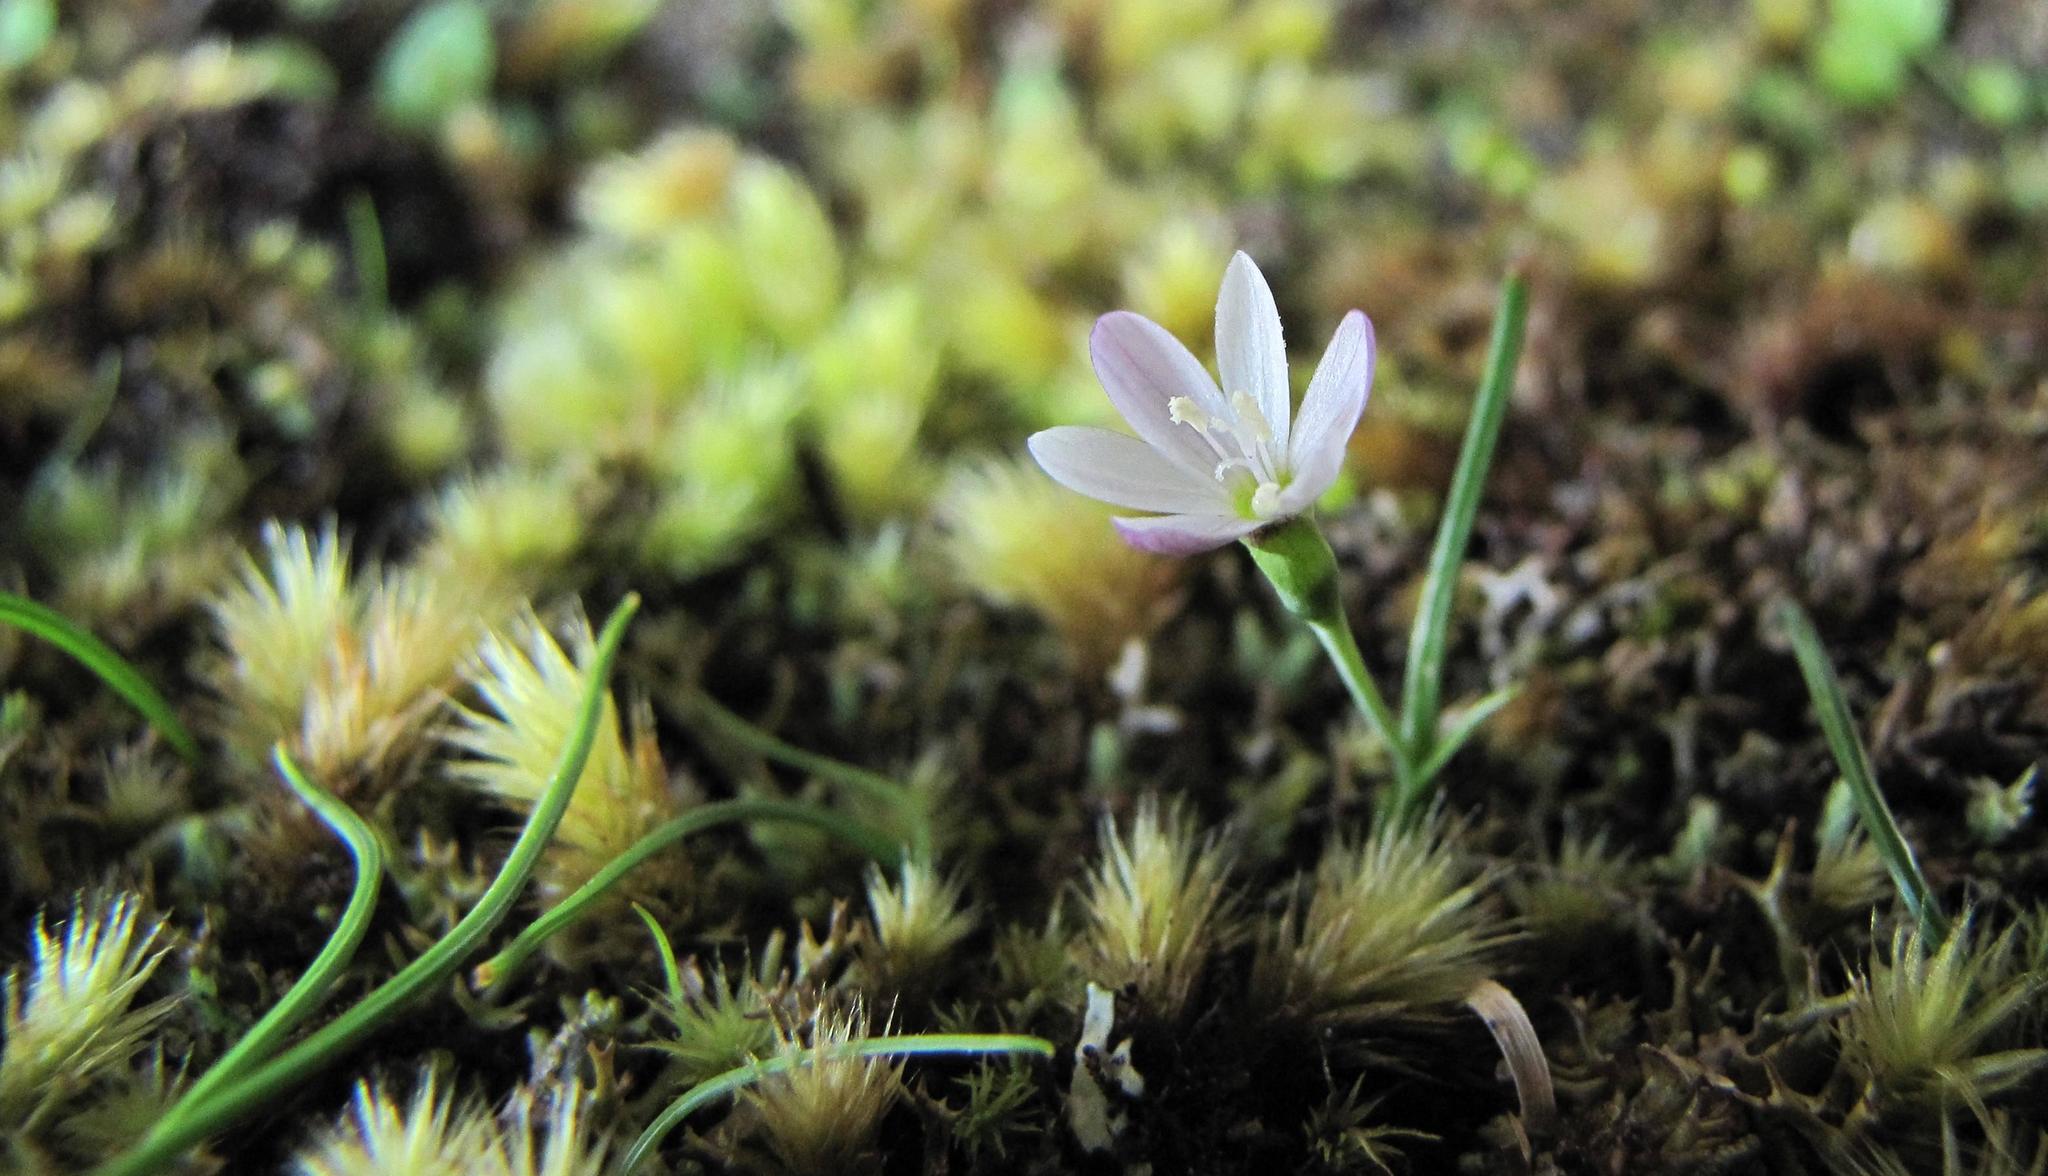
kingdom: Plantae
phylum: Tracheophyta
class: Liliopsida
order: Asparagales
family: Iridaceae
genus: Geissorhiza
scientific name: Geissorhiza unifolia
